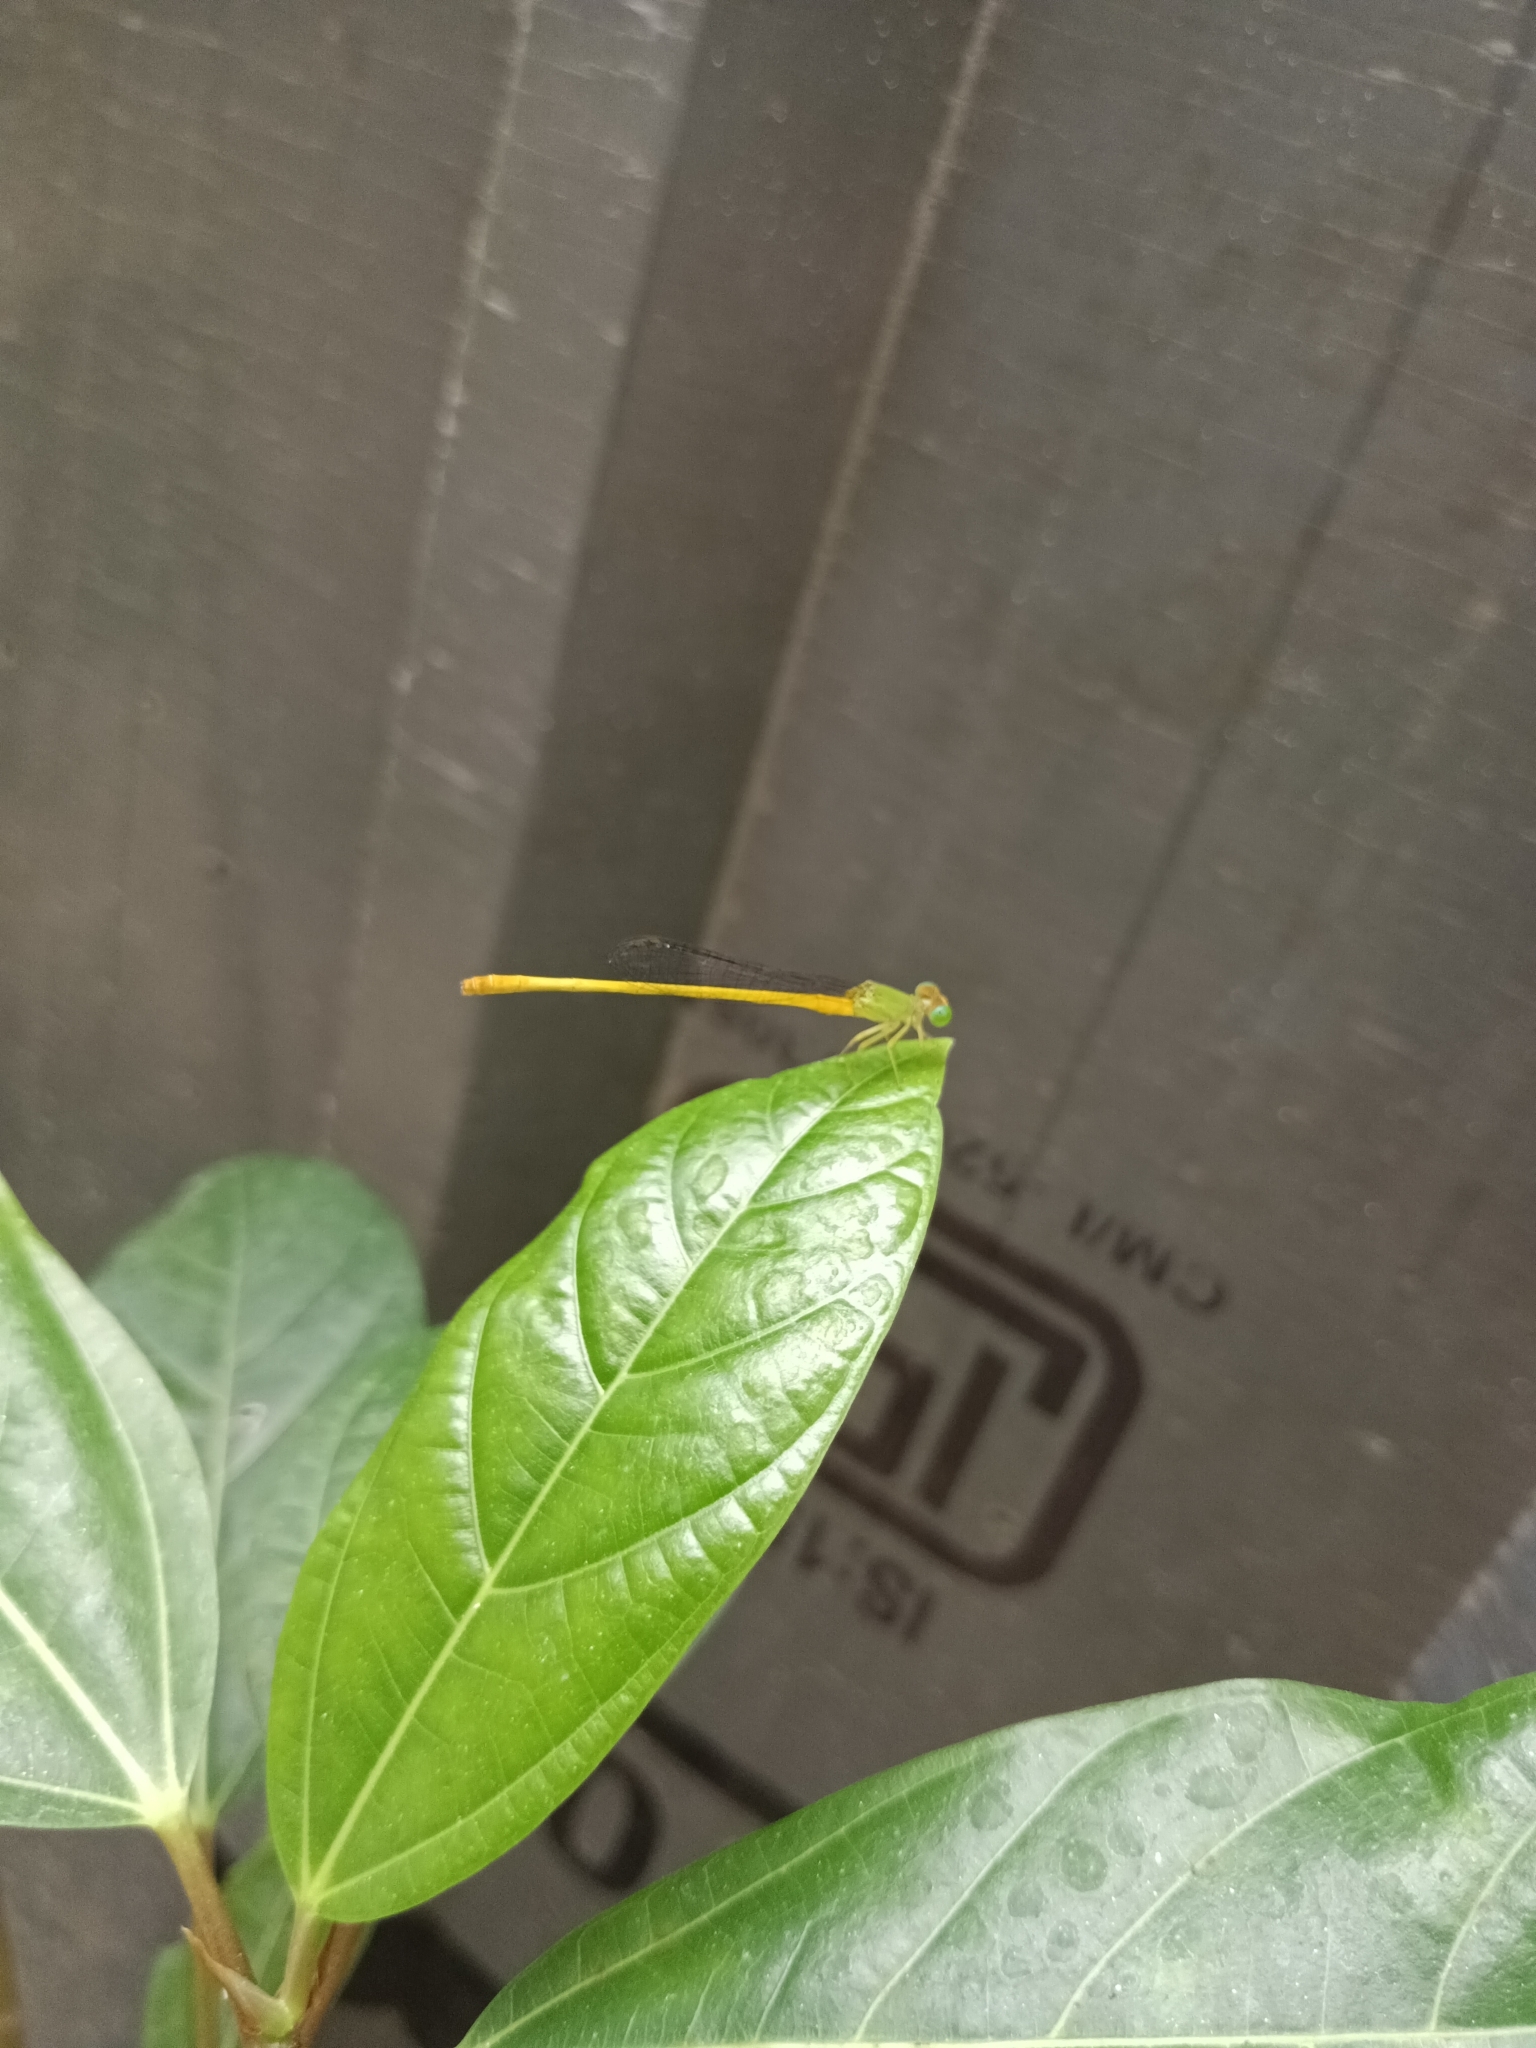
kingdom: Animalia
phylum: Arthropoda
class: Insecta
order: Odonata
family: Coenagrionidae
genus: Ceriagrion
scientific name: Ceriagrion coromandelianum
